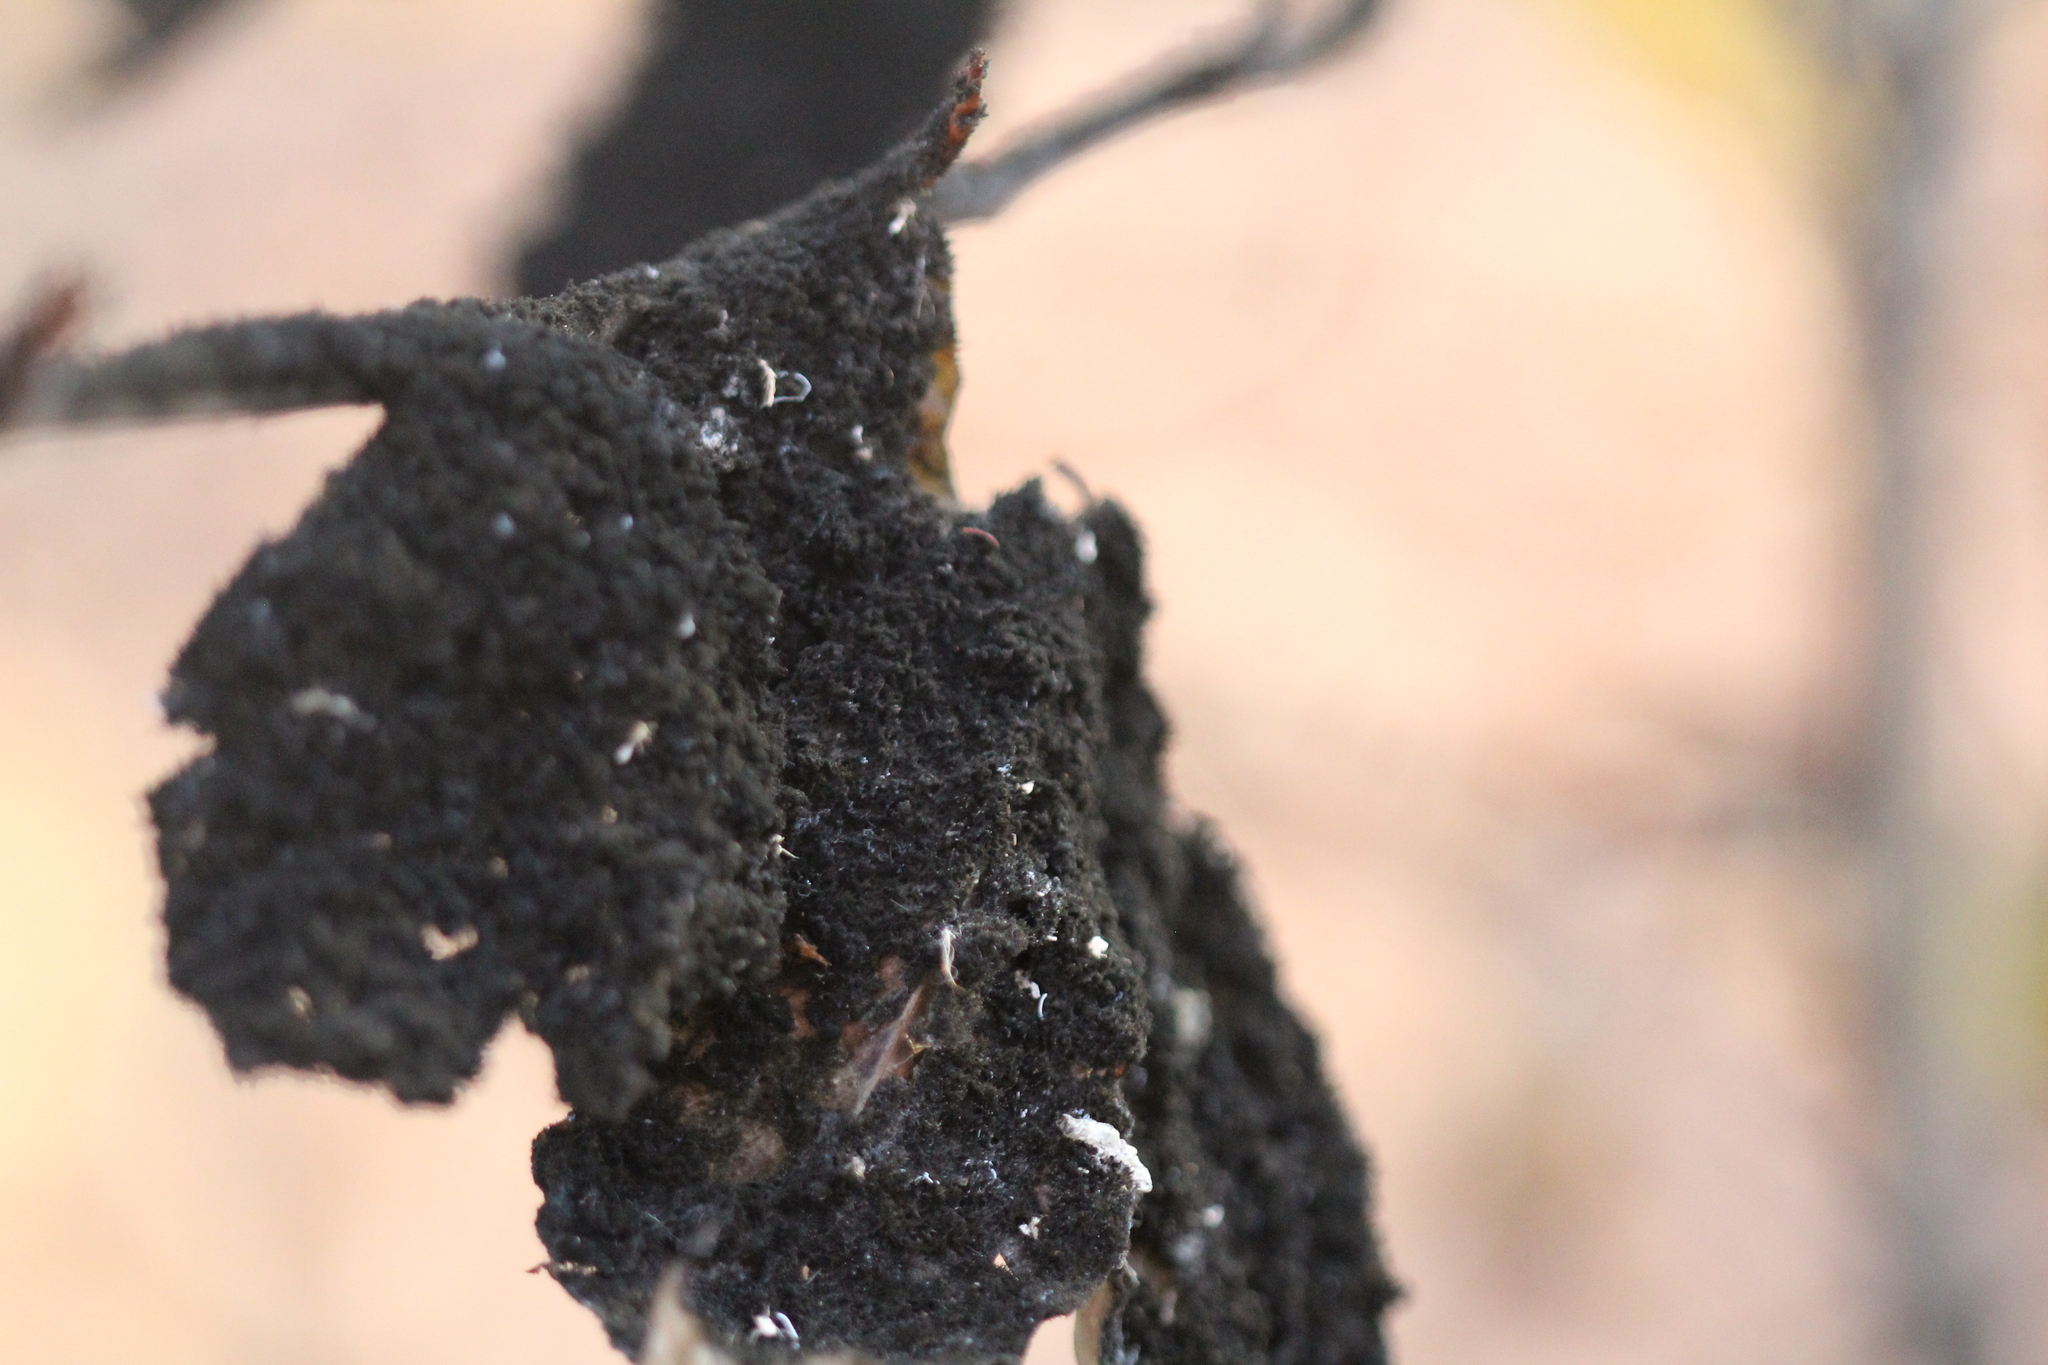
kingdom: Fungi
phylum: Ascomycota
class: Dothideomycetes
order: Capnodiales
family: Capnodiaceae
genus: Scorias
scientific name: Scorias spongiosa
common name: Black sooty mold
